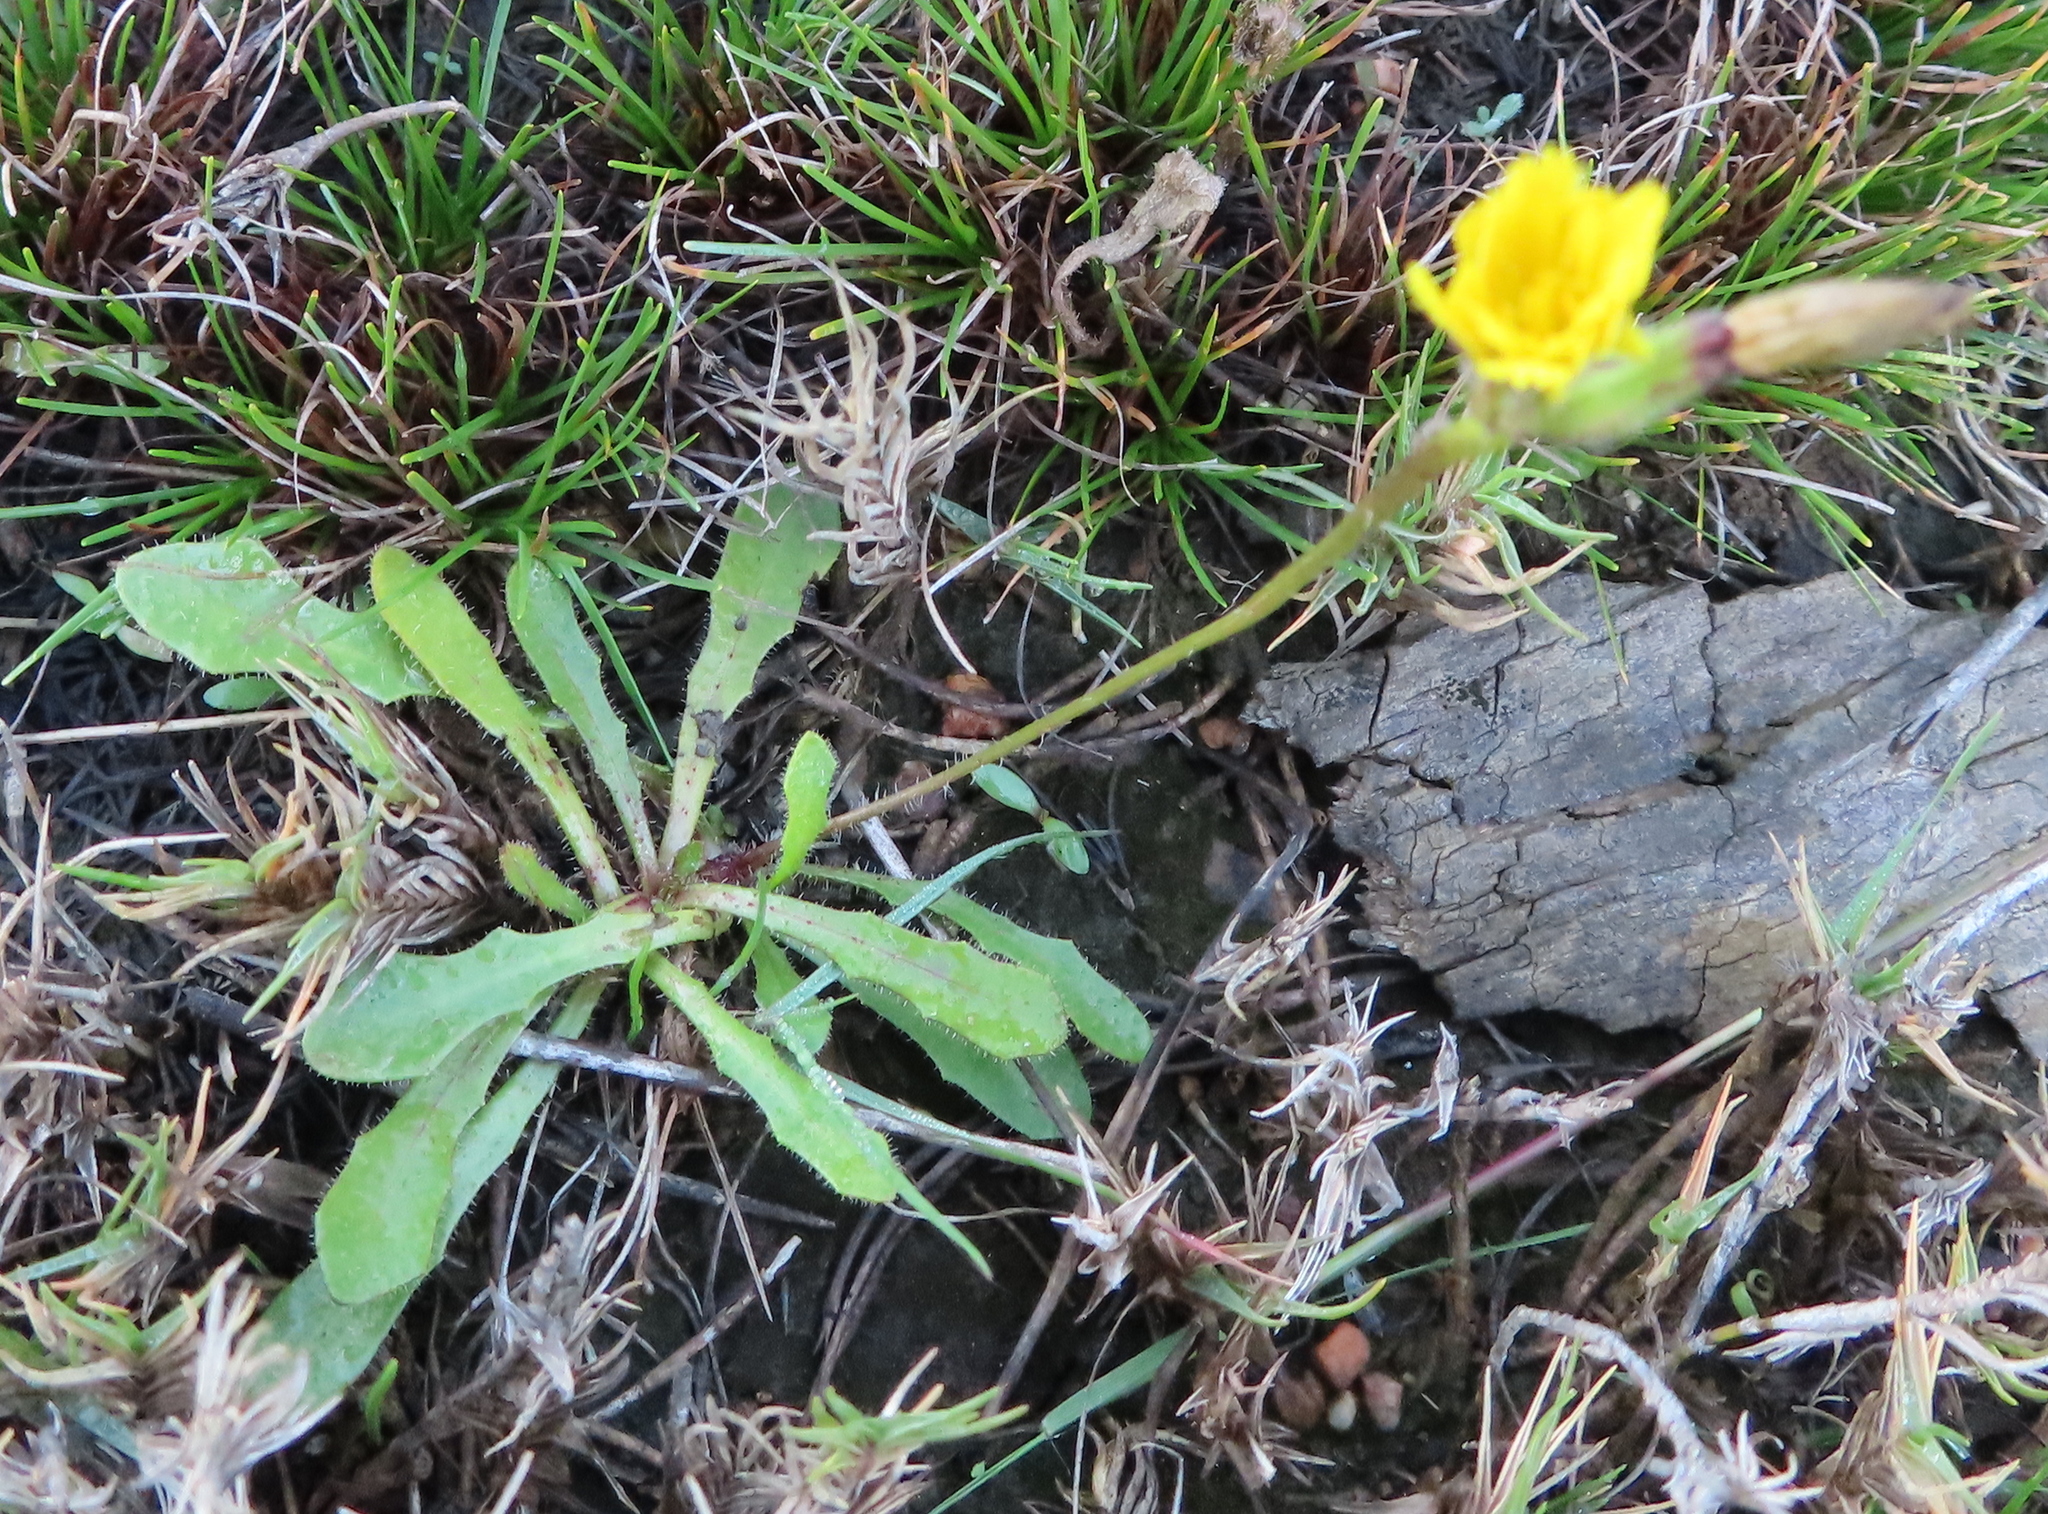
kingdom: Plantae
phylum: Tracheophyta
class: Magnoliopsida
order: Asterales
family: Asteraceae
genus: Hypochaeris
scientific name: Hypochaeris radicata
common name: Flatweed
